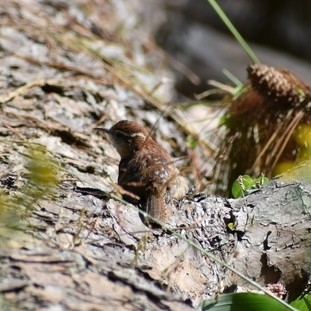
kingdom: Animalia
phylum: Chordata
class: Aves
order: Passeriformes
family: Troglodytidae
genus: Thryothorus
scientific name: Thryothorus ludovicianus
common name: Carolina wren
